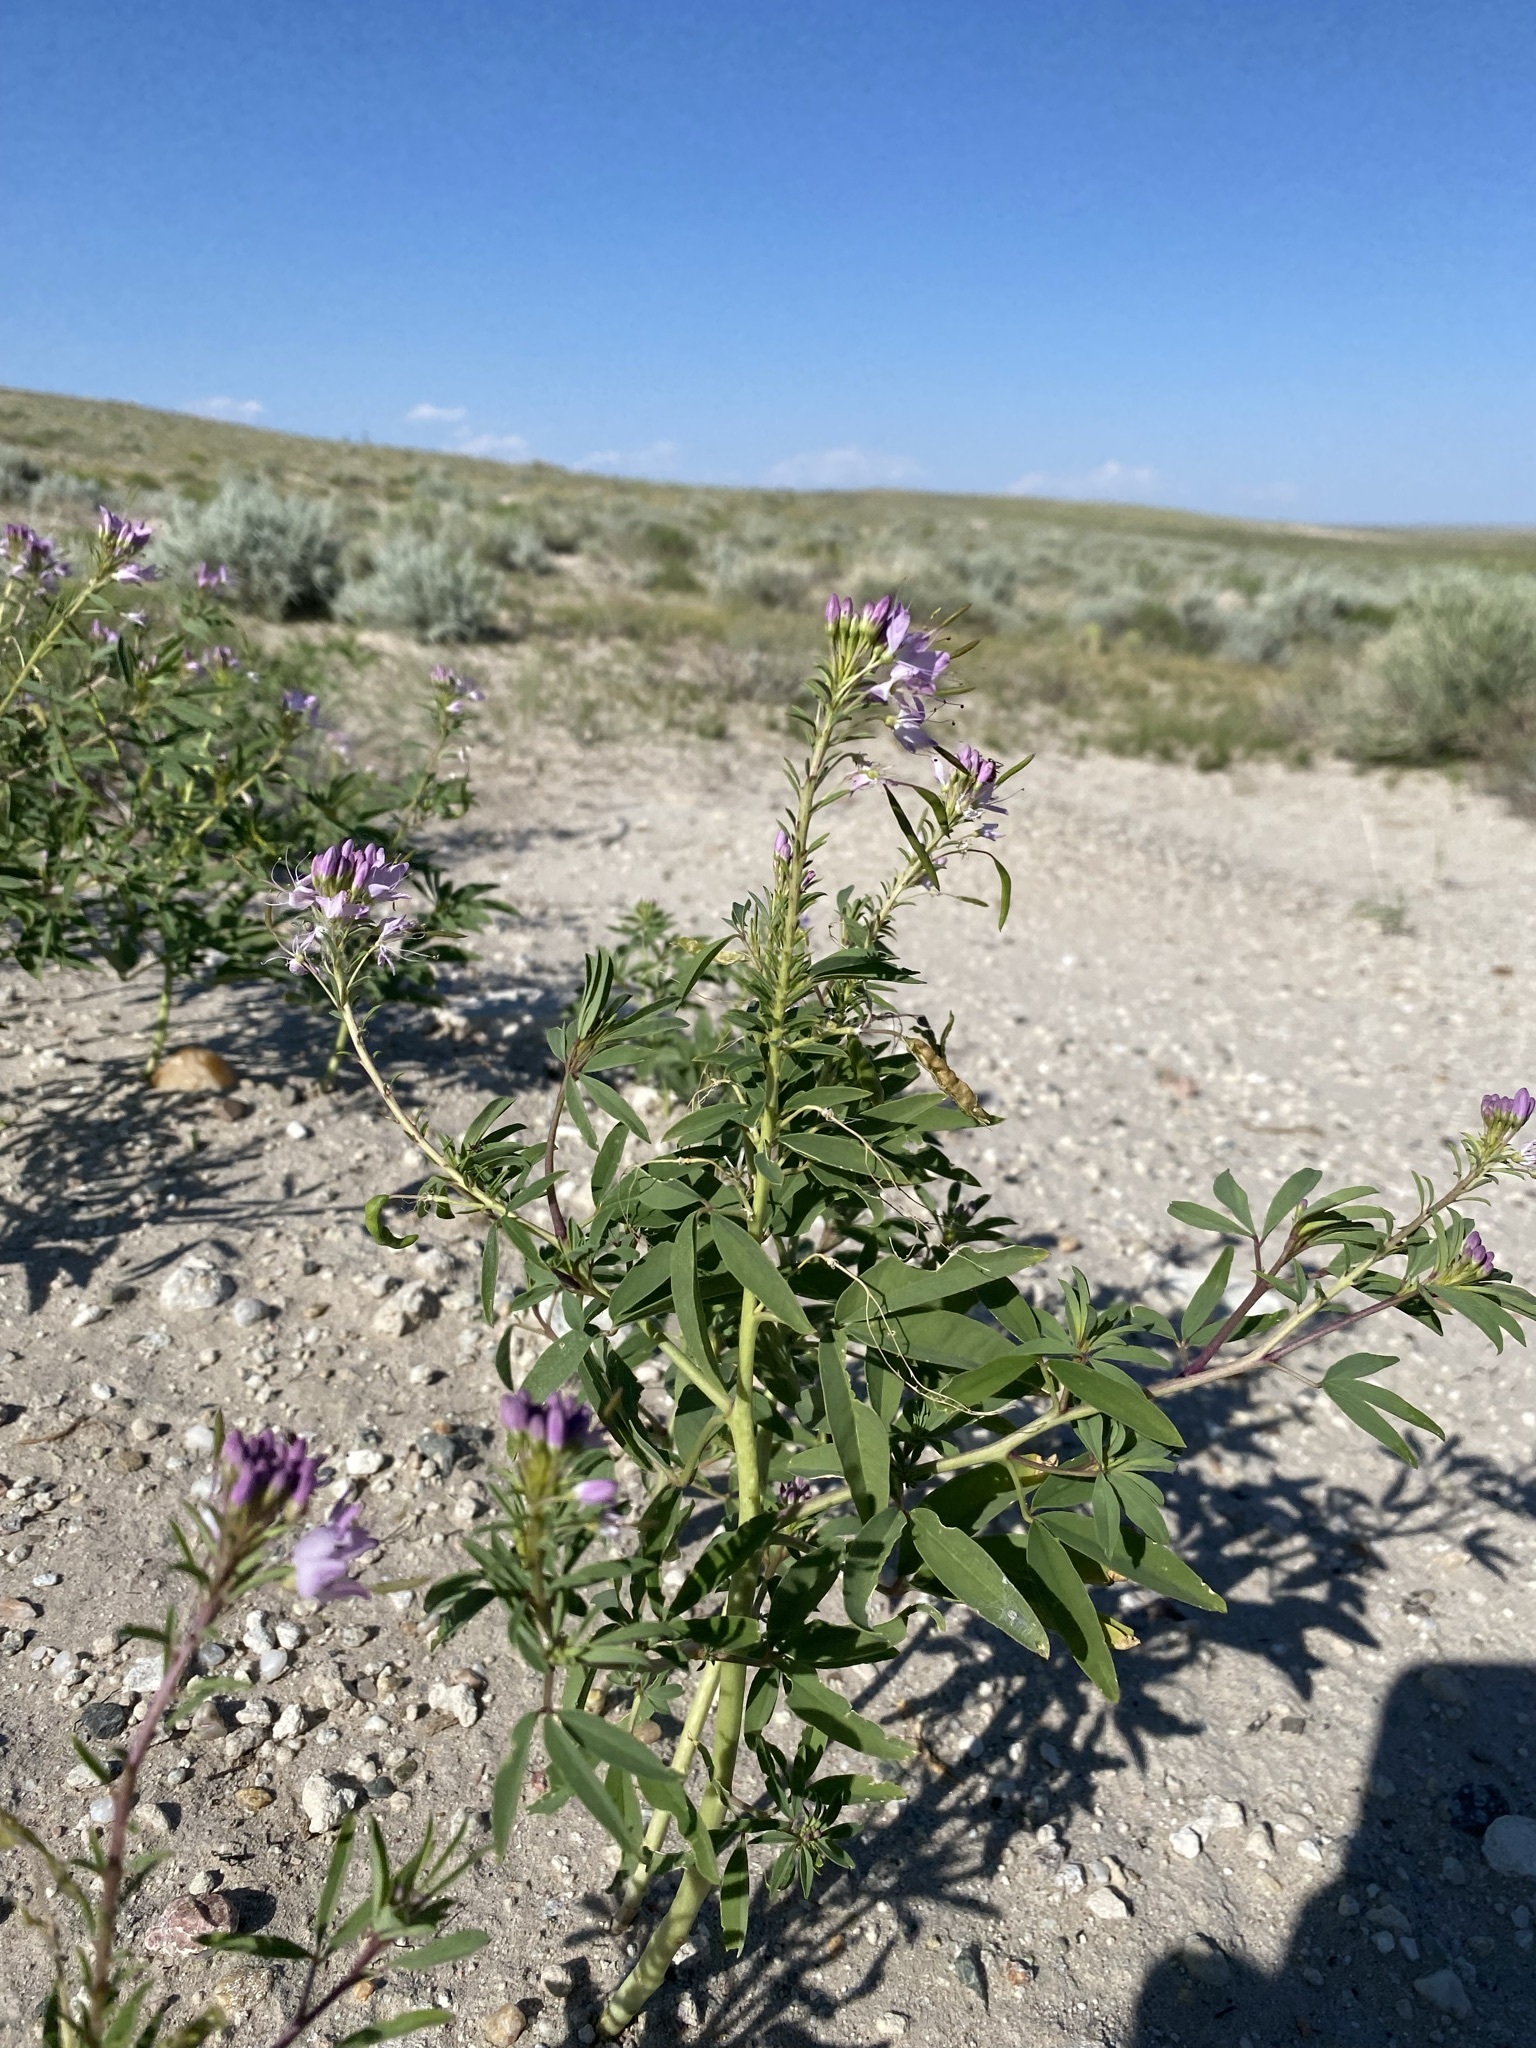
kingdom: Plantae
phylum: Tracheophyta
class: Magnoliopsida
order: Brassicales
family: Cleomaceae
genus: Cleomella
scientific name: Cleomella serrulata
